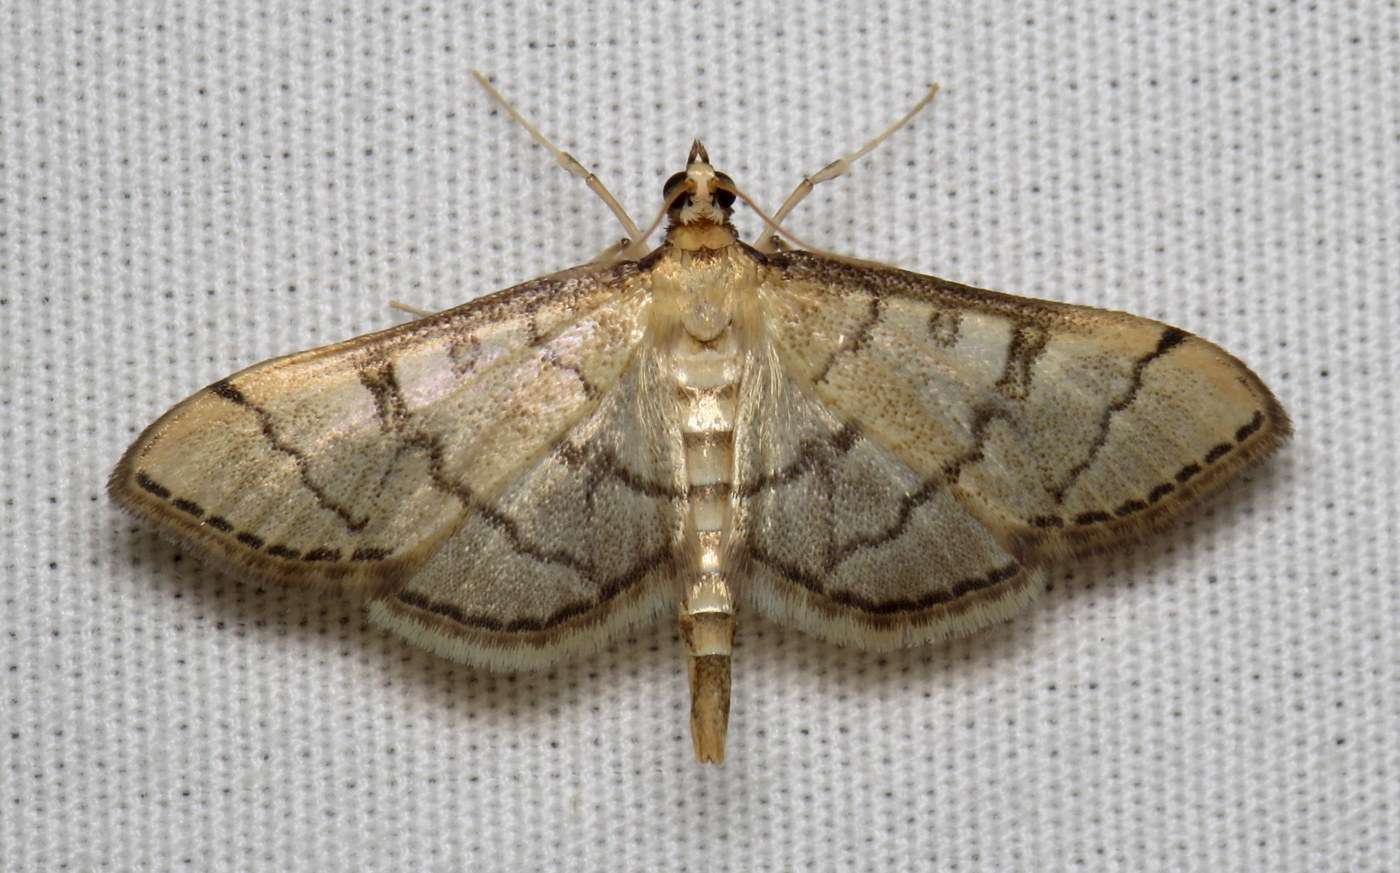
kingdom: Animalia
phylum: Arthropoda
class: Insecta
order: Lepidoptera
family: Crambidae
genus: Lamprosema
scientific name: Lamprosema Blepharomastix ranalis
